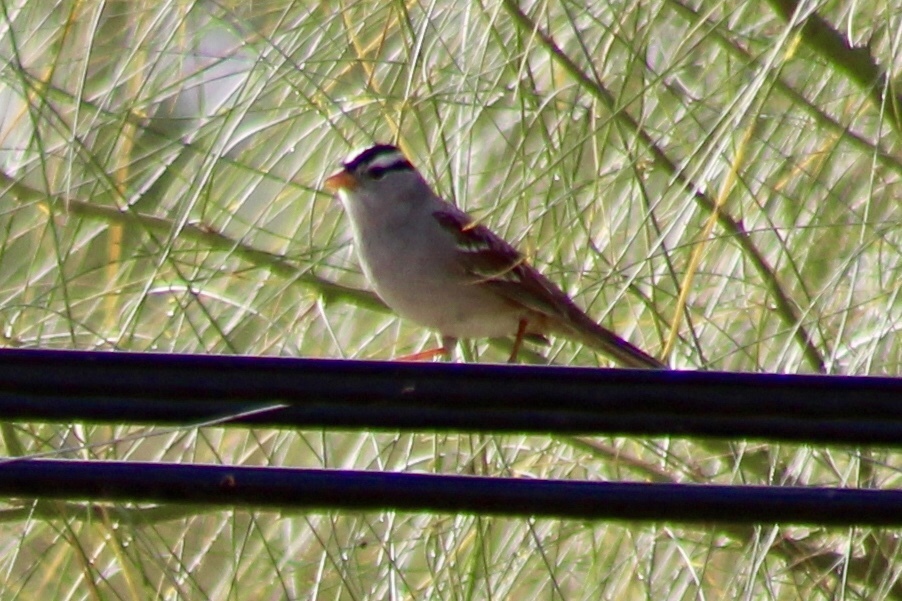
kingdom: Animalia
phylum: Chordata
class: Aves
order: Passeriformes
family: Passerellidae
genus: Zonotrichia
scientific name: Zonotrichia leucophrys
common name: White-crowned sparrow
